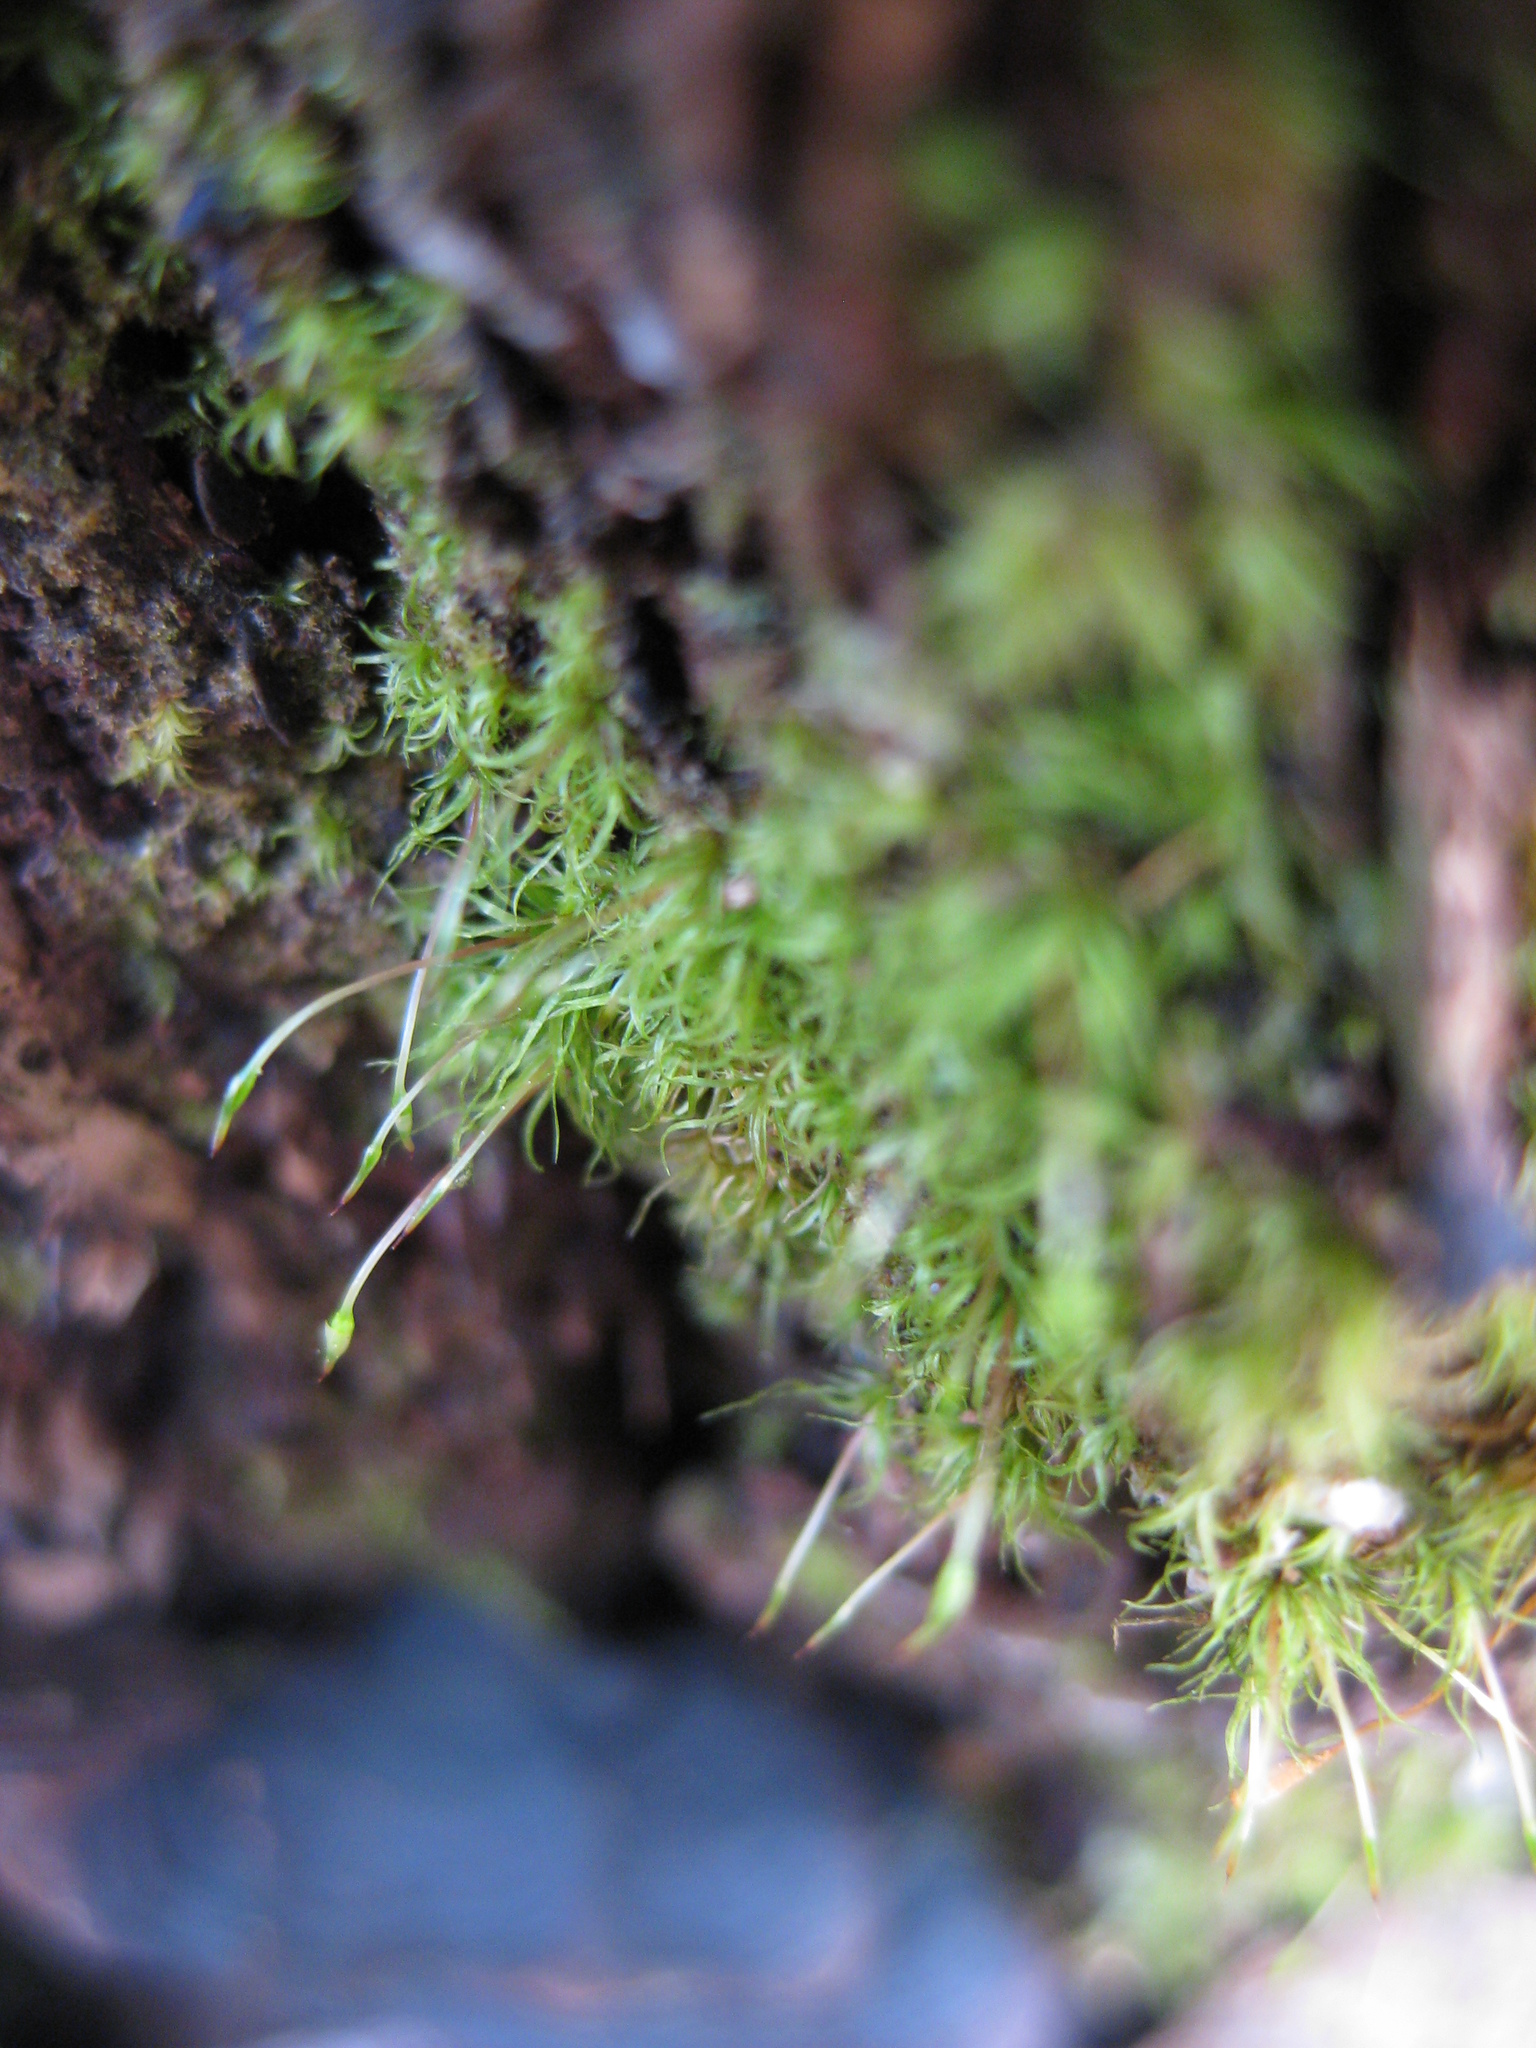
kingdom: Plantae
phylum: Bryophyta
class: Bryopsida
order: Orthodontiales
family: Orthodontiaceae
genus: Orthodontium
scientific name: Orthodontium lineare
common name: Cape thread-moss
